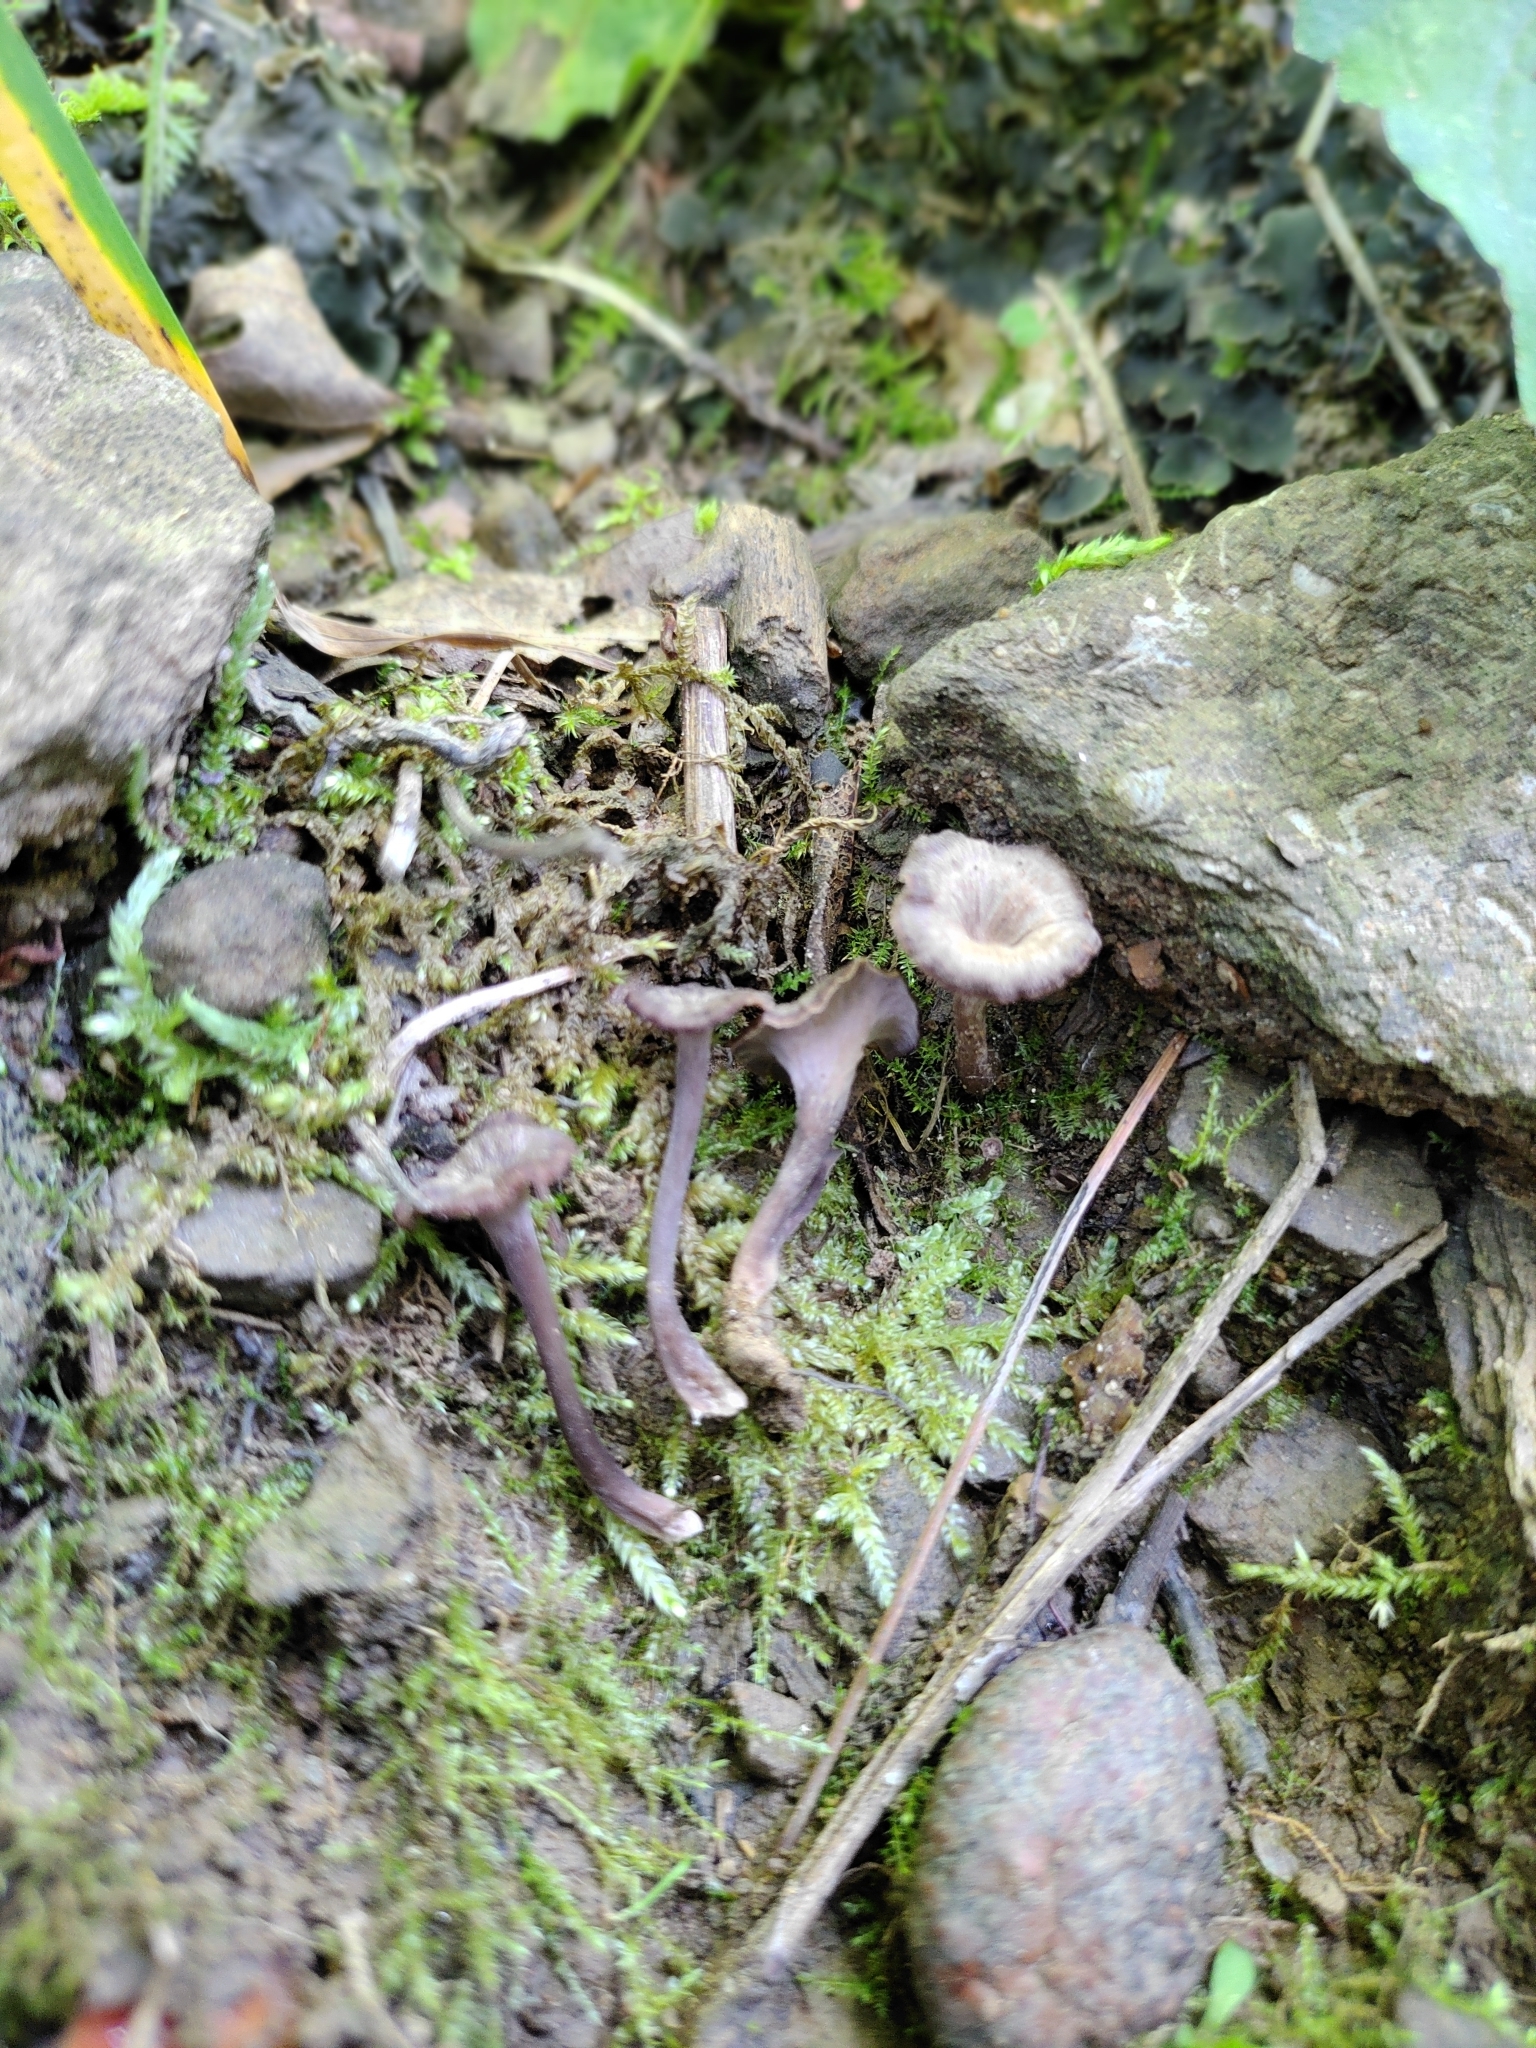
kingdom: Fungi
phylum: Basidiomycota
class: Agaricomycetes
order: Cantharellales
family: Hydnaceae
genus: Pseudocraterellus
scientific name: Pseudocraterellus subundulatus
